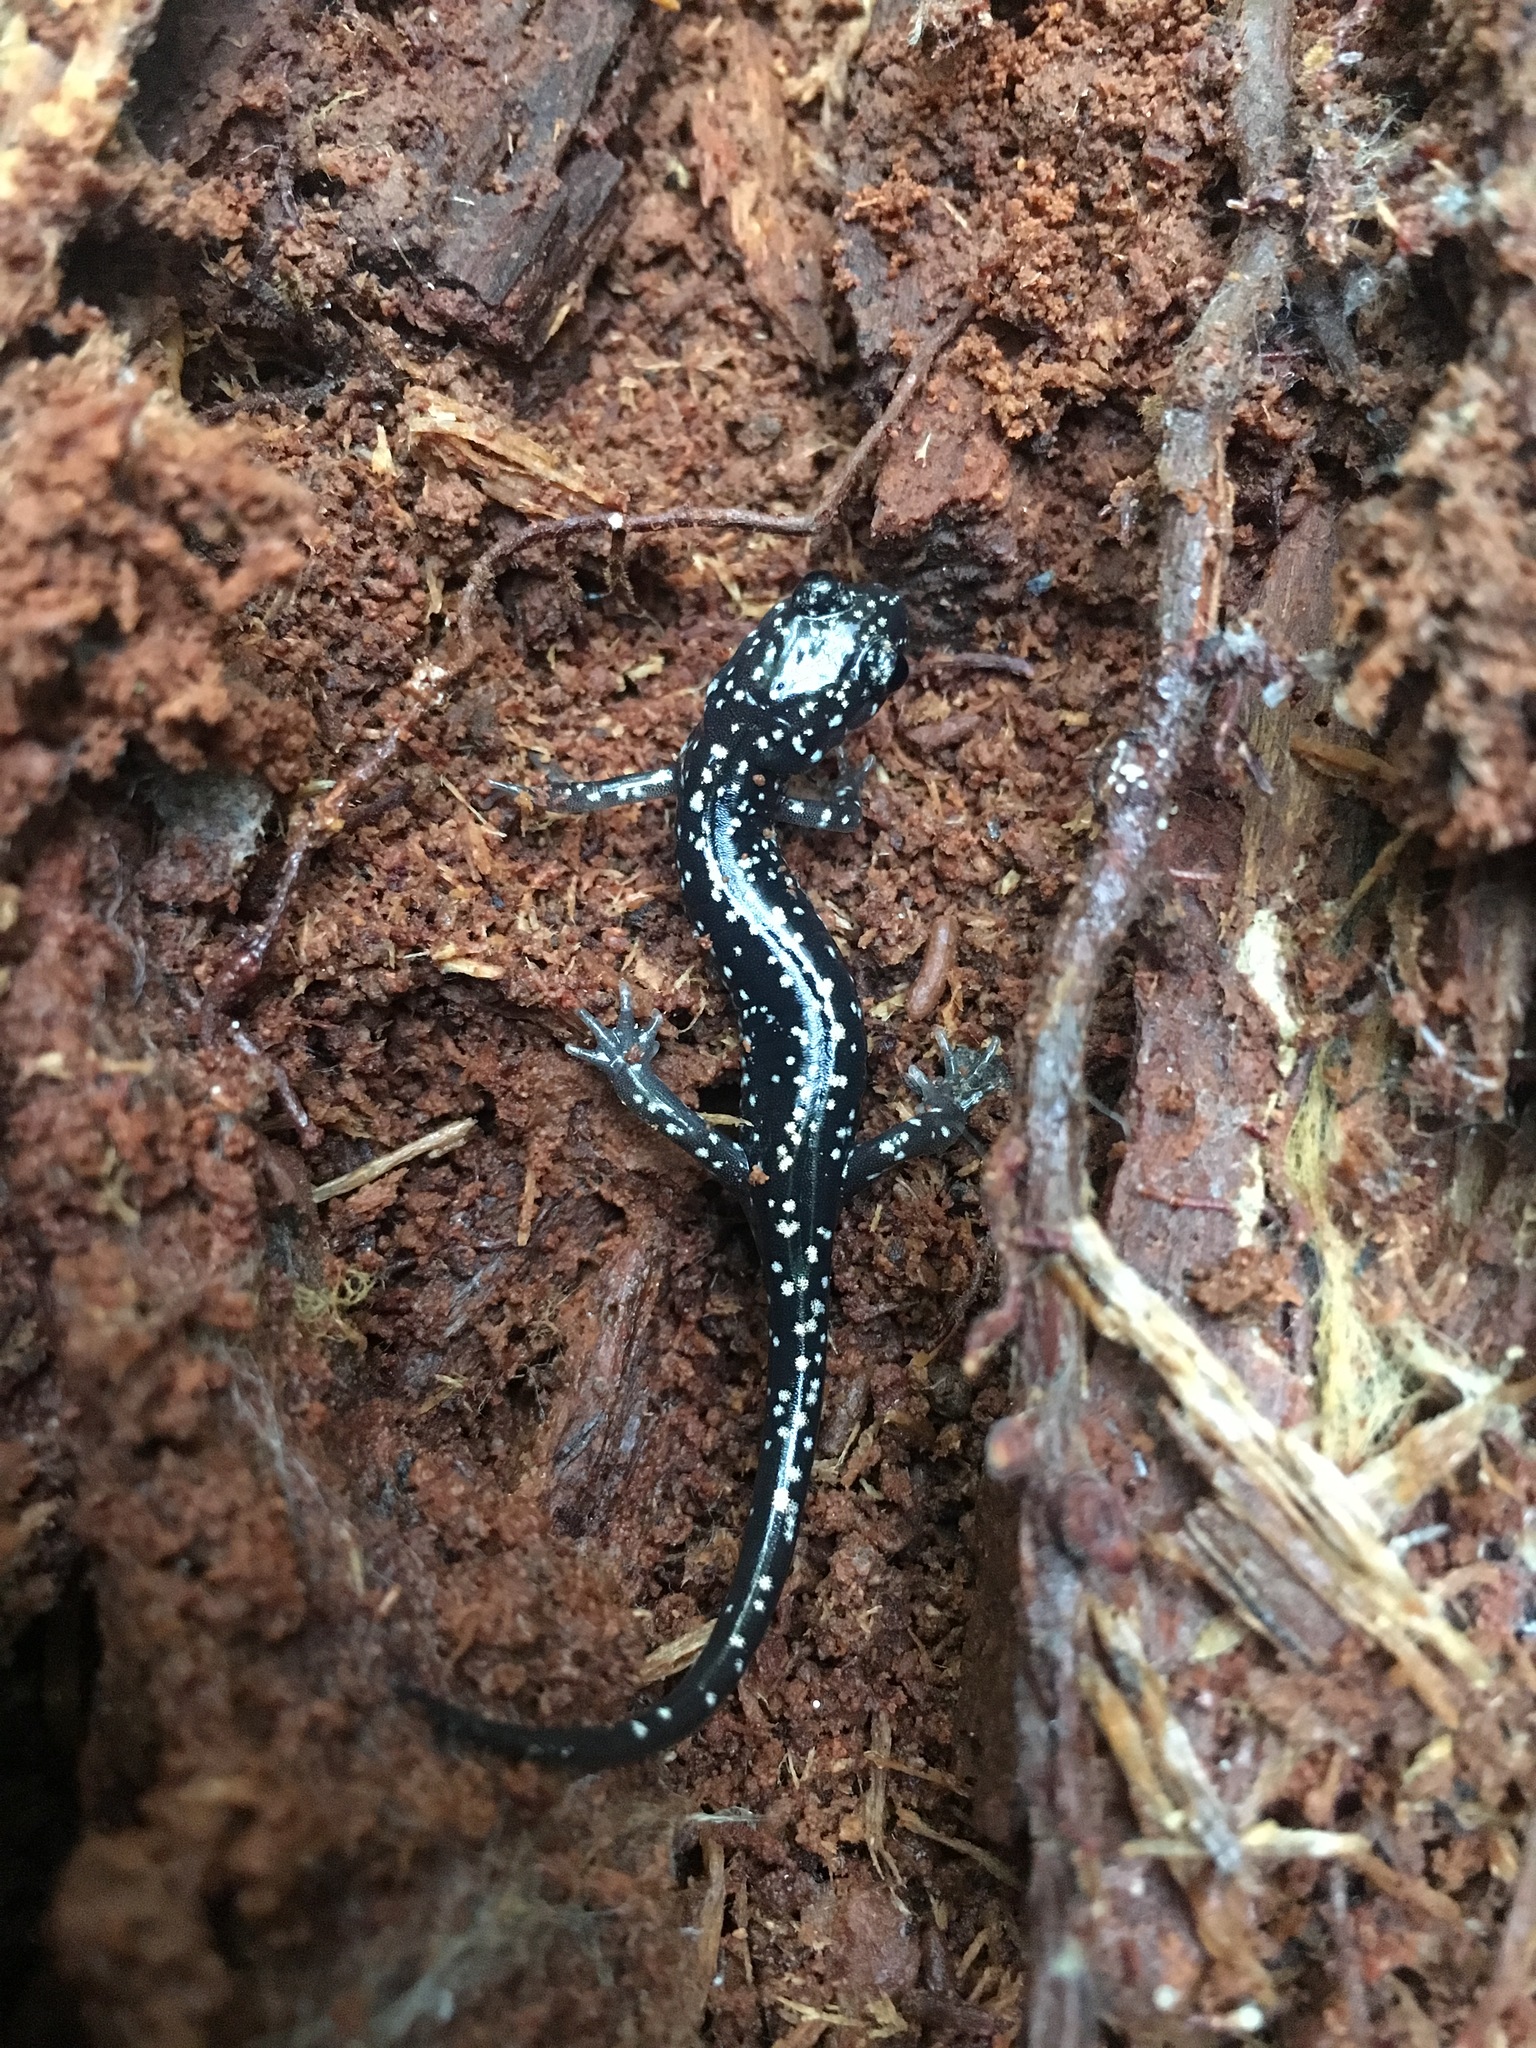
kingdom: Animalia
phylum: Chordata
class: Amphibia
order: Caudata
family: Plethodontidae
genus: Plethodon
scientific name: Plethodon glutinosus
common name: Northern slimy salamander
